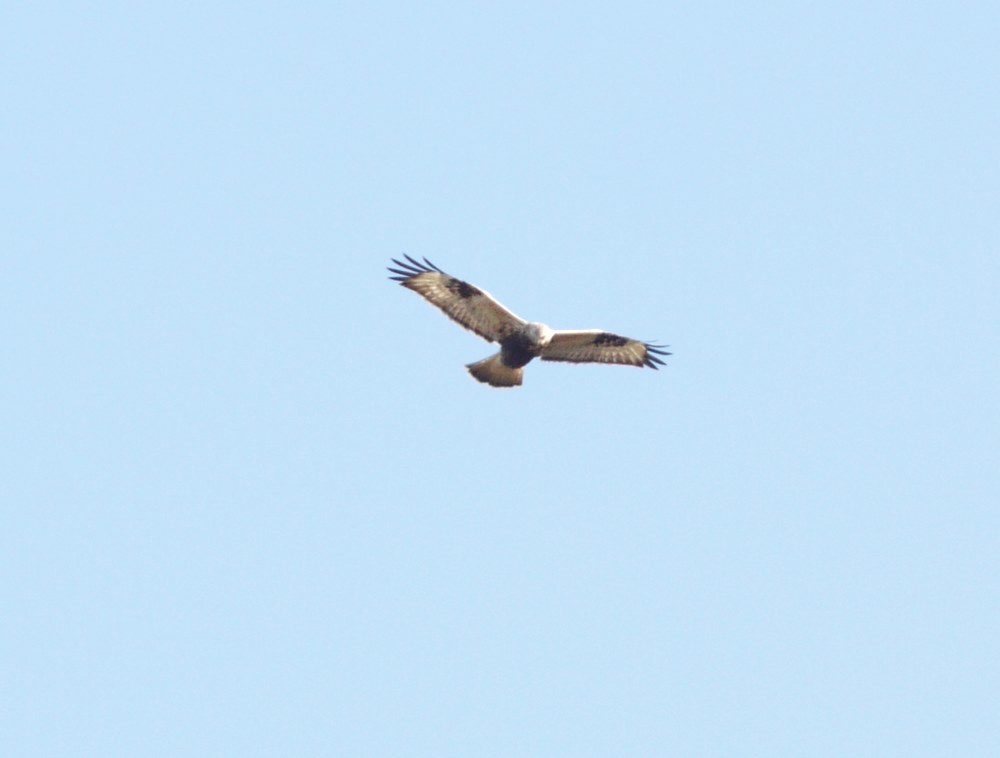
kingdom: Animalia
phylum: Chordata
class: Aves
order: Accipitriformes
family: Accipitridae
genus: Buteo
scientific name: Buteo lagopus
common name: Rough-legged buzzard
